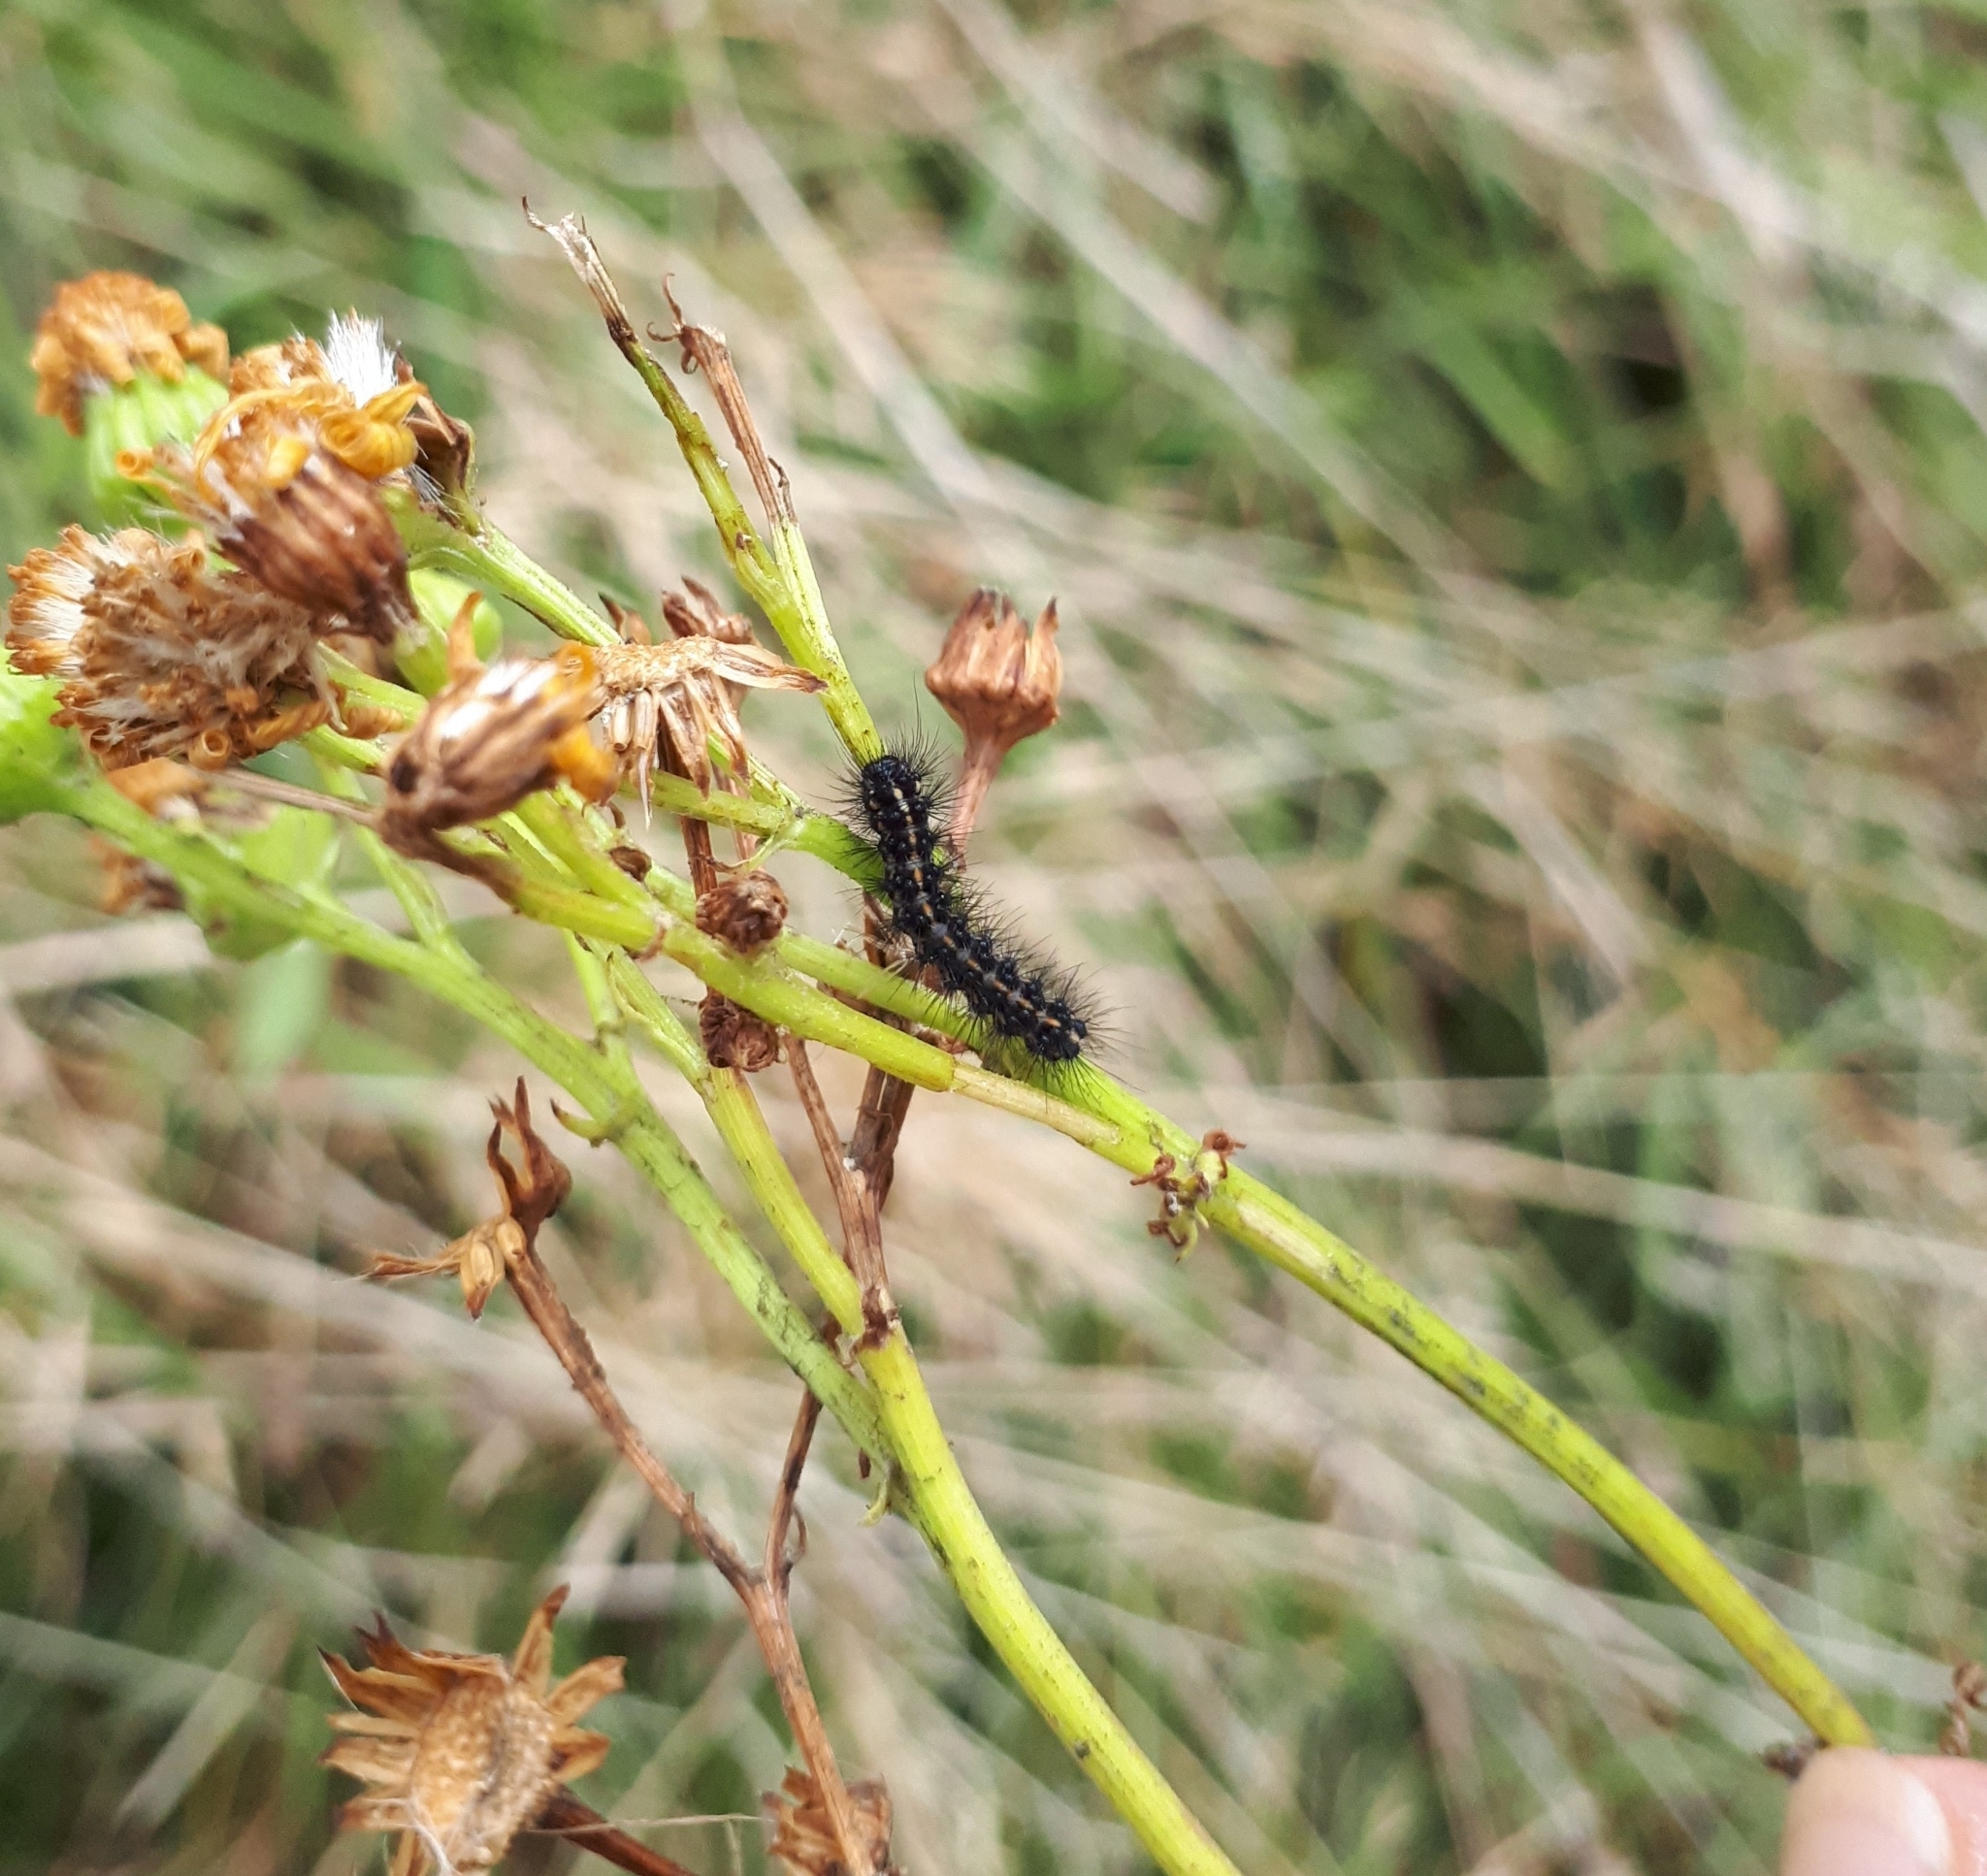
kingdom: Animalia
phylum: Arthropoda
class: Insecta
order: Lepidoptera
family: Erebidae
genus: Nyctemera
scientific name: Nyctemera annulatum
